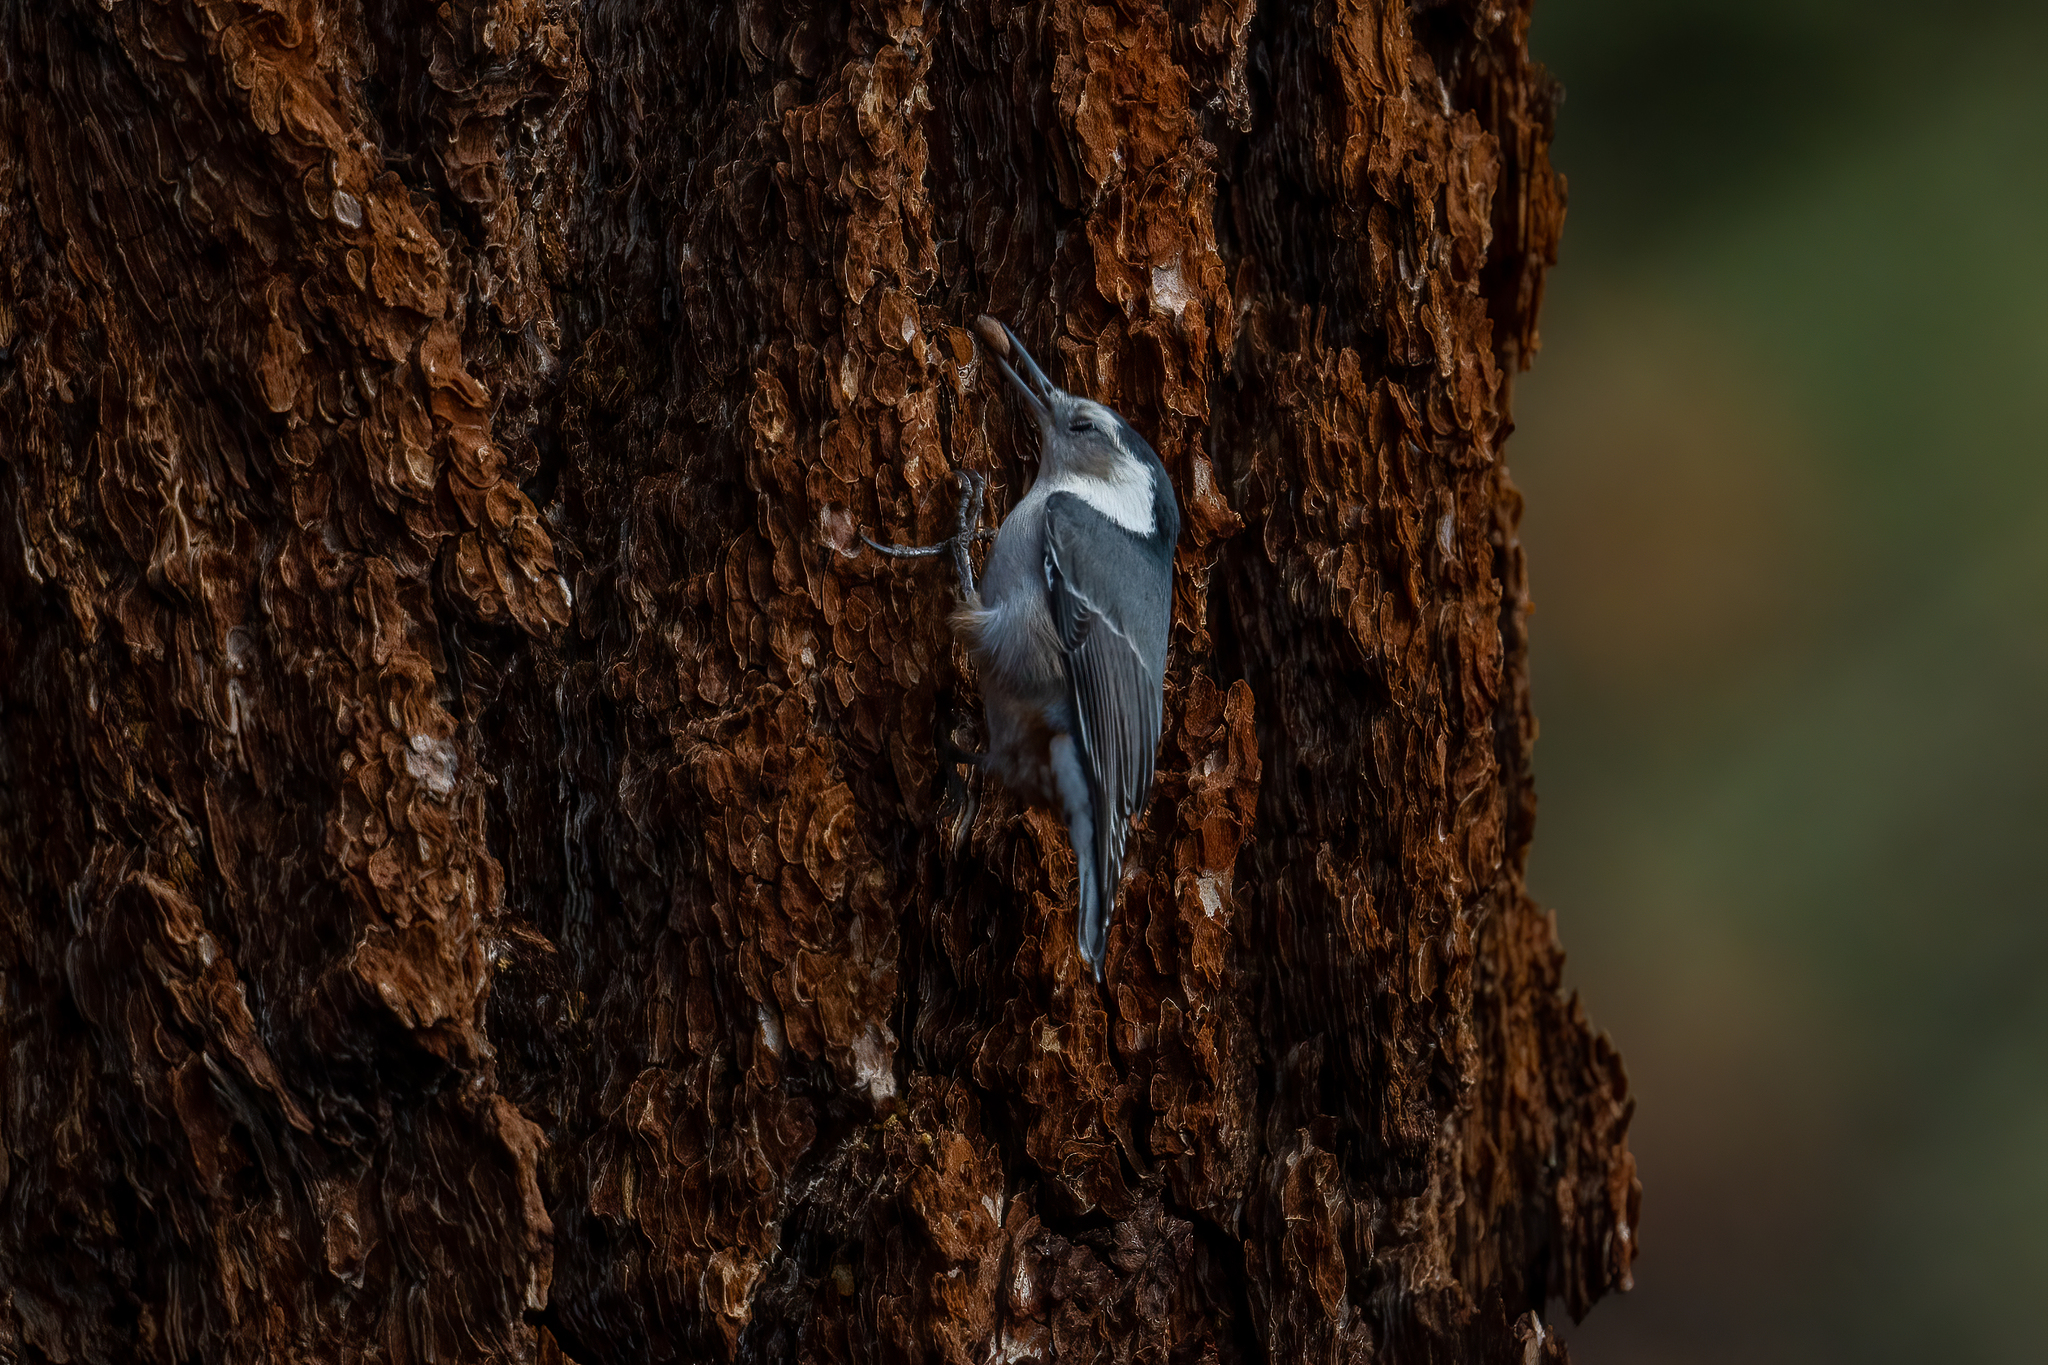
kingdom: Animalia
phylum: Chordata
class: Aves
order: Passeriformes
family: Sittidae
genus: Sitta
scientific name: Sitta carolinensis
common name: White-breasted nuthatch
